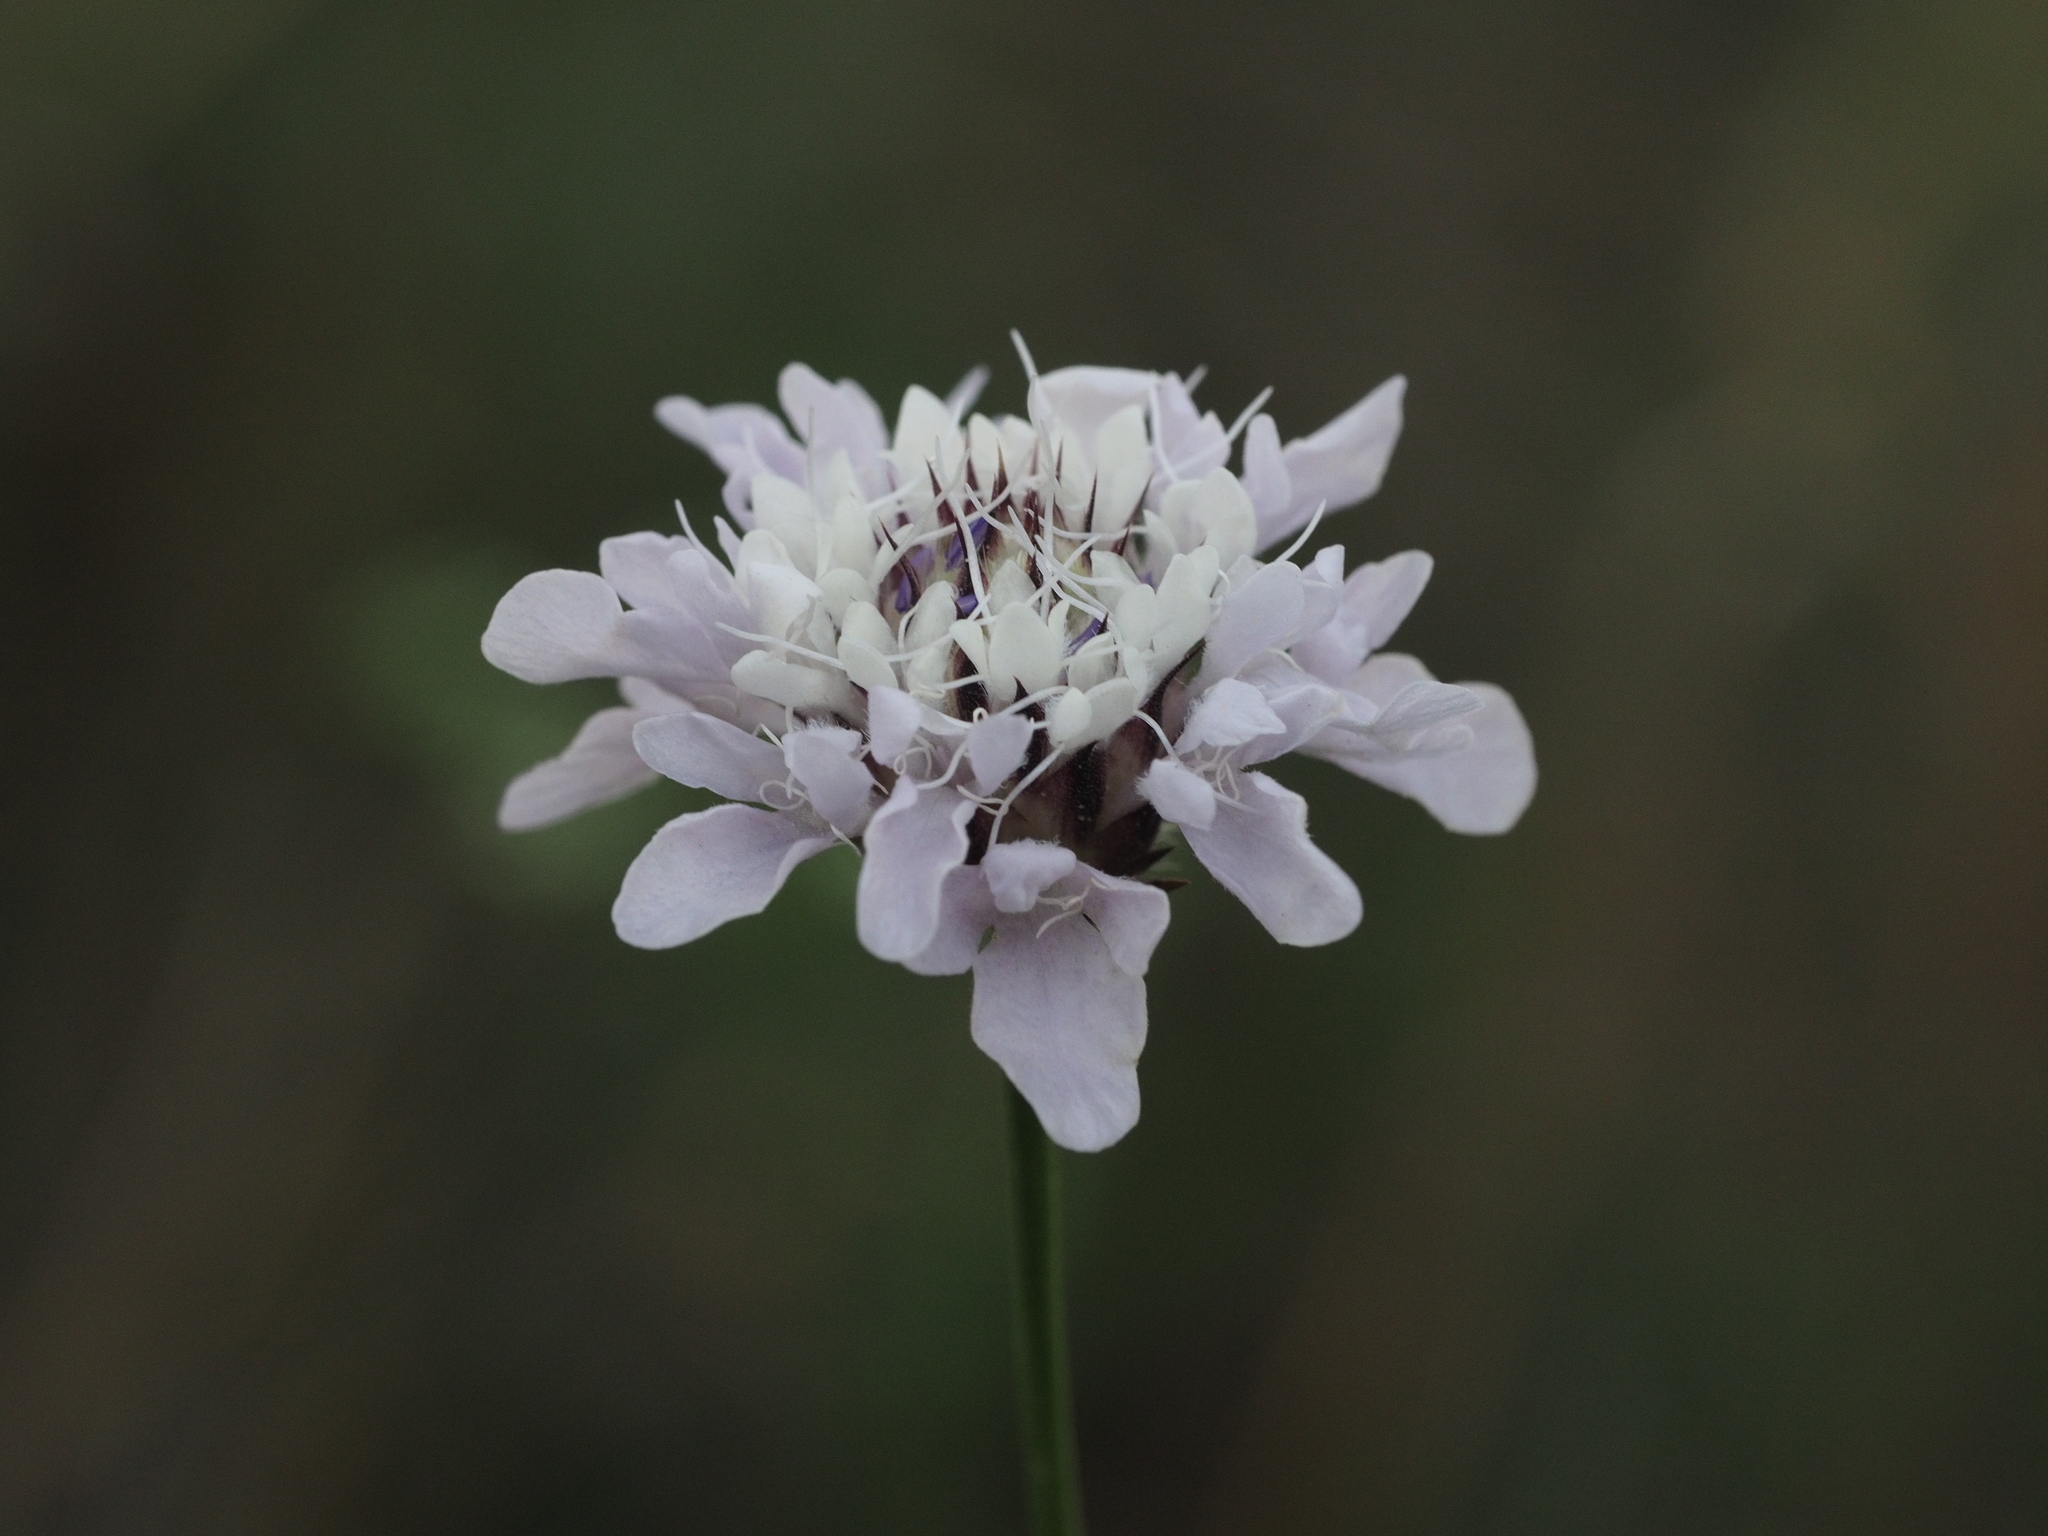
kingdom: Plantae
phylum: Tracheophyta
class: Magnoliopsida
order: Dipsacales
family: Caprifoliaceae
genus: Cephalaria
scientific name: Cephalaria transsylvanica
